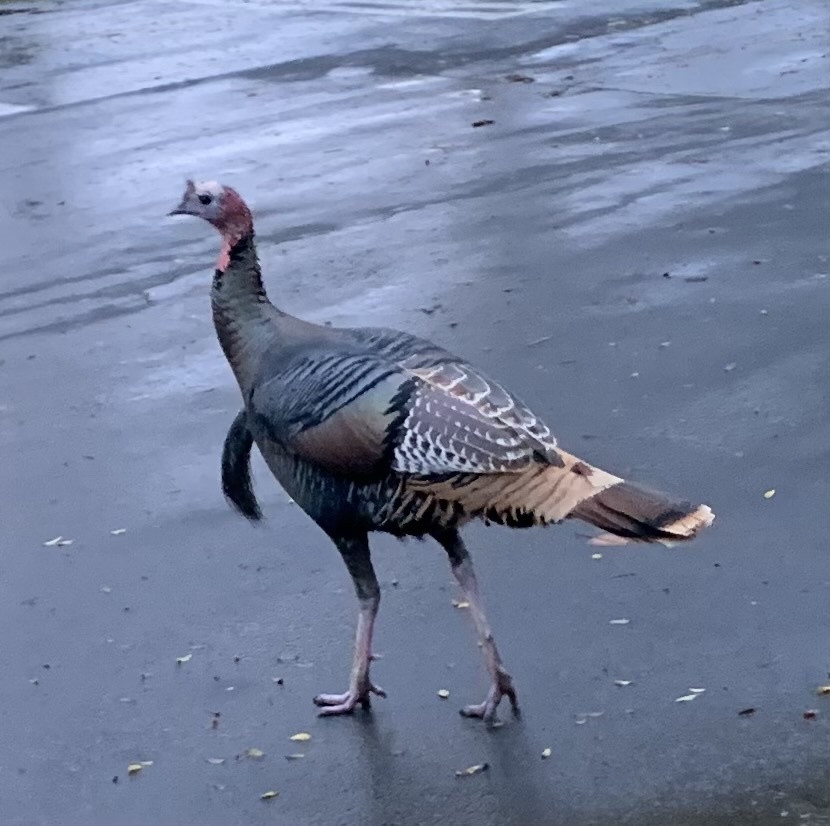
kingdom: Animalia
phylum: Chordata
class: Aves
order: Galliformes
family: Phasianidae
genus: Meleagris
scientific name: Meleagris gallopavo
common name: Wild turkey
